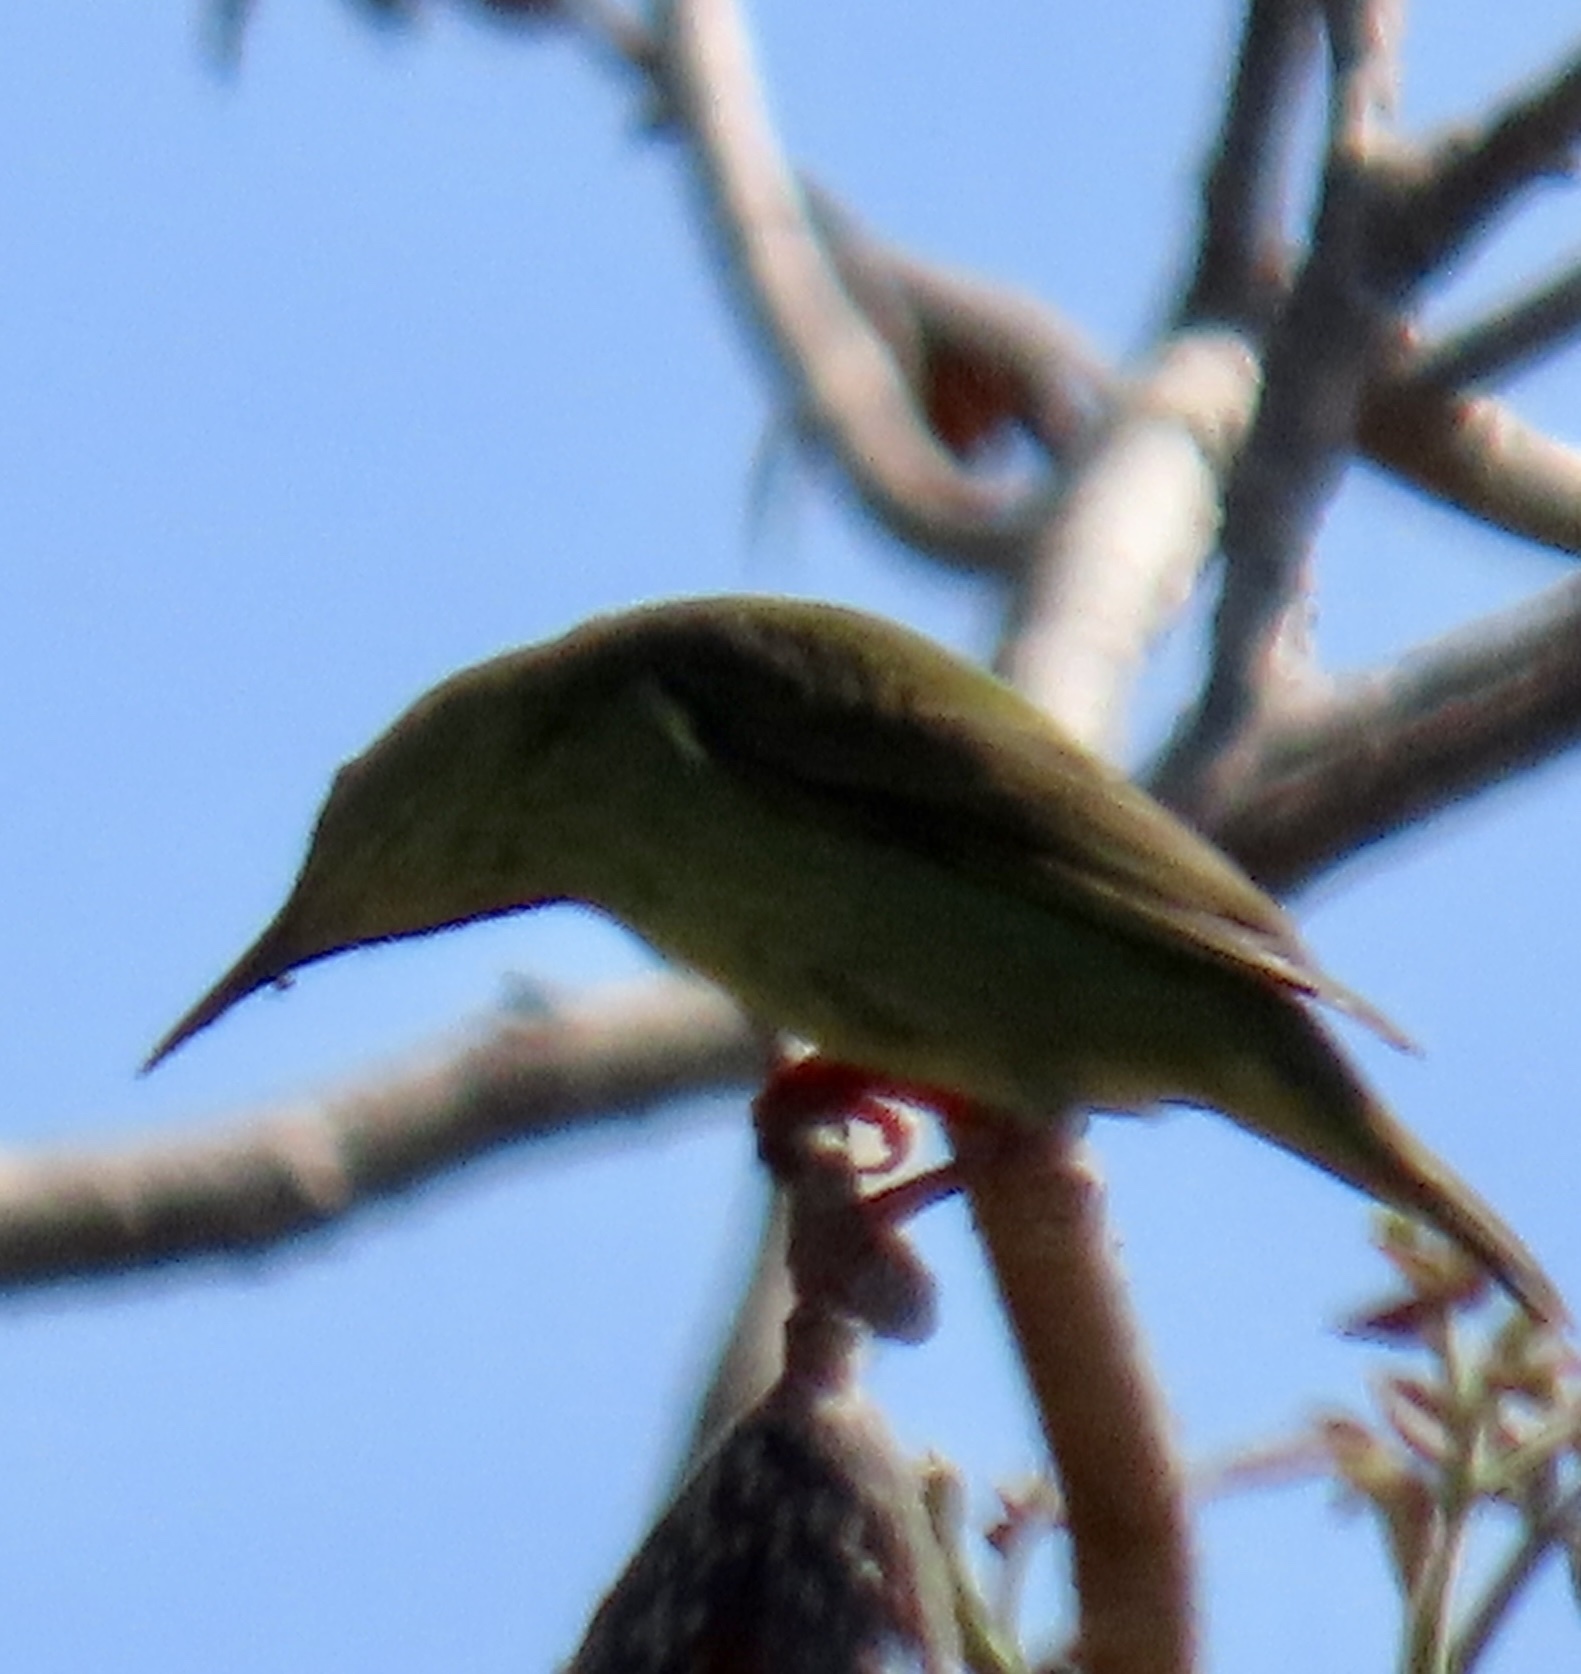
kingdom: Animalia
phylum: Chordata
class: Aves
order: Passeriformes
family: Thraupidae
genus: Cyanerpes
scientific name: Cyanerpes cyaneus
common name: Red-legged honeycreeper
